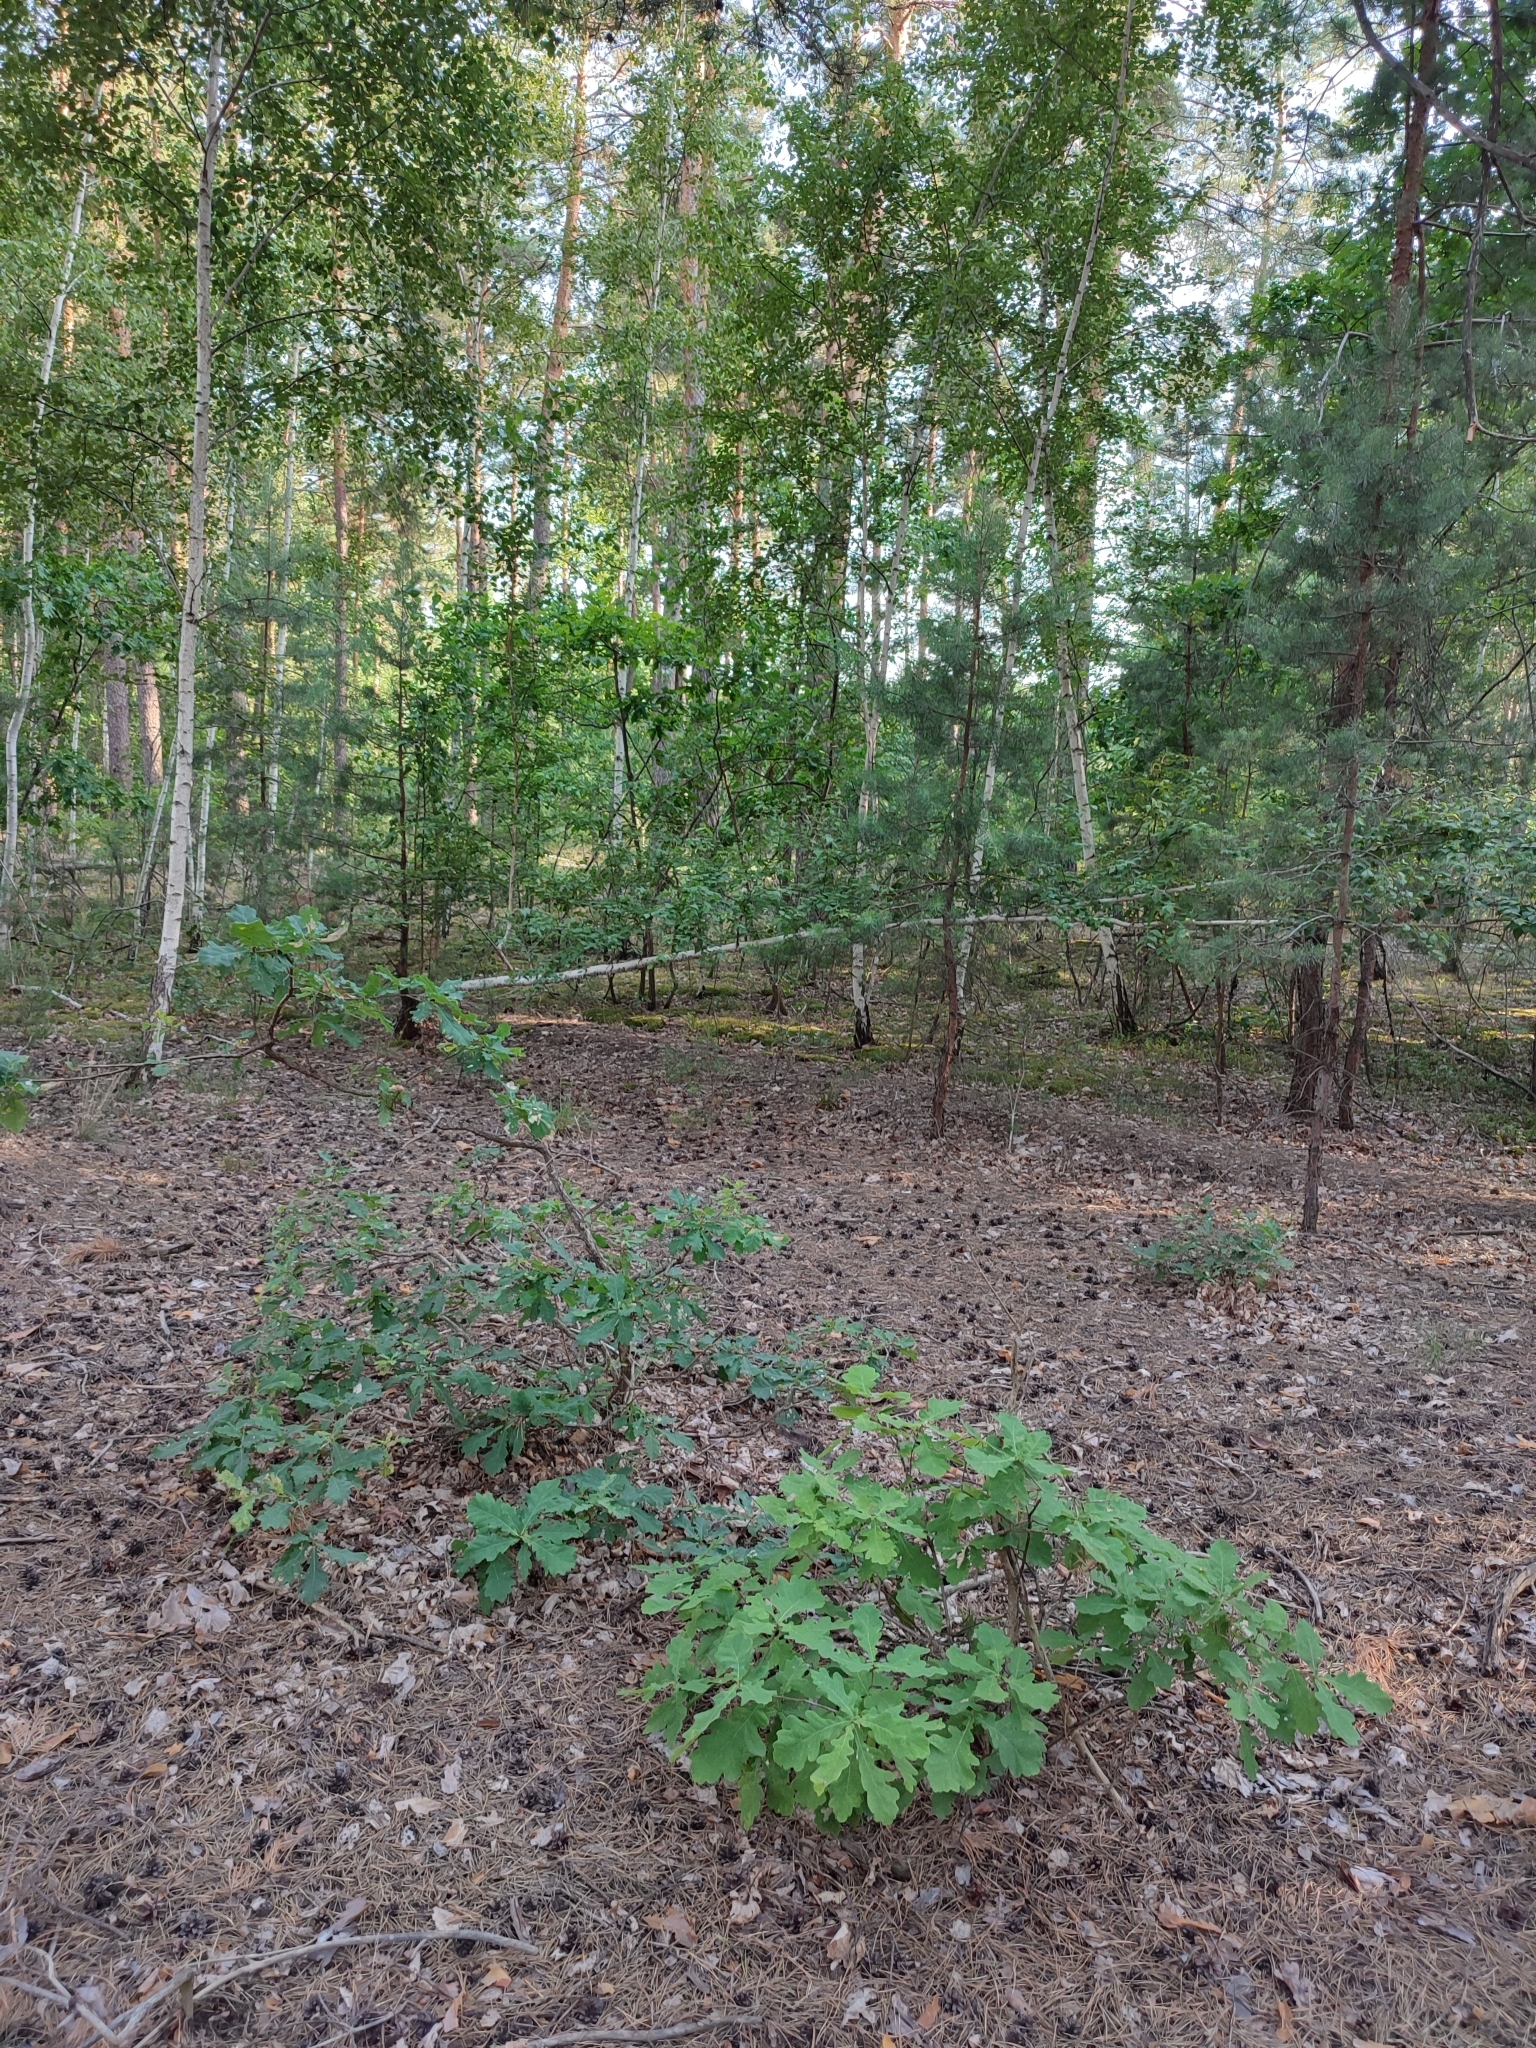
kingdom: Plantae
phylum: Tracheophyta
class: Magnoliopsida
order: Fagales
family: Fagaceae
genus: Quercus
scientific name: Quercus robur
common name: Pedunculate oak
